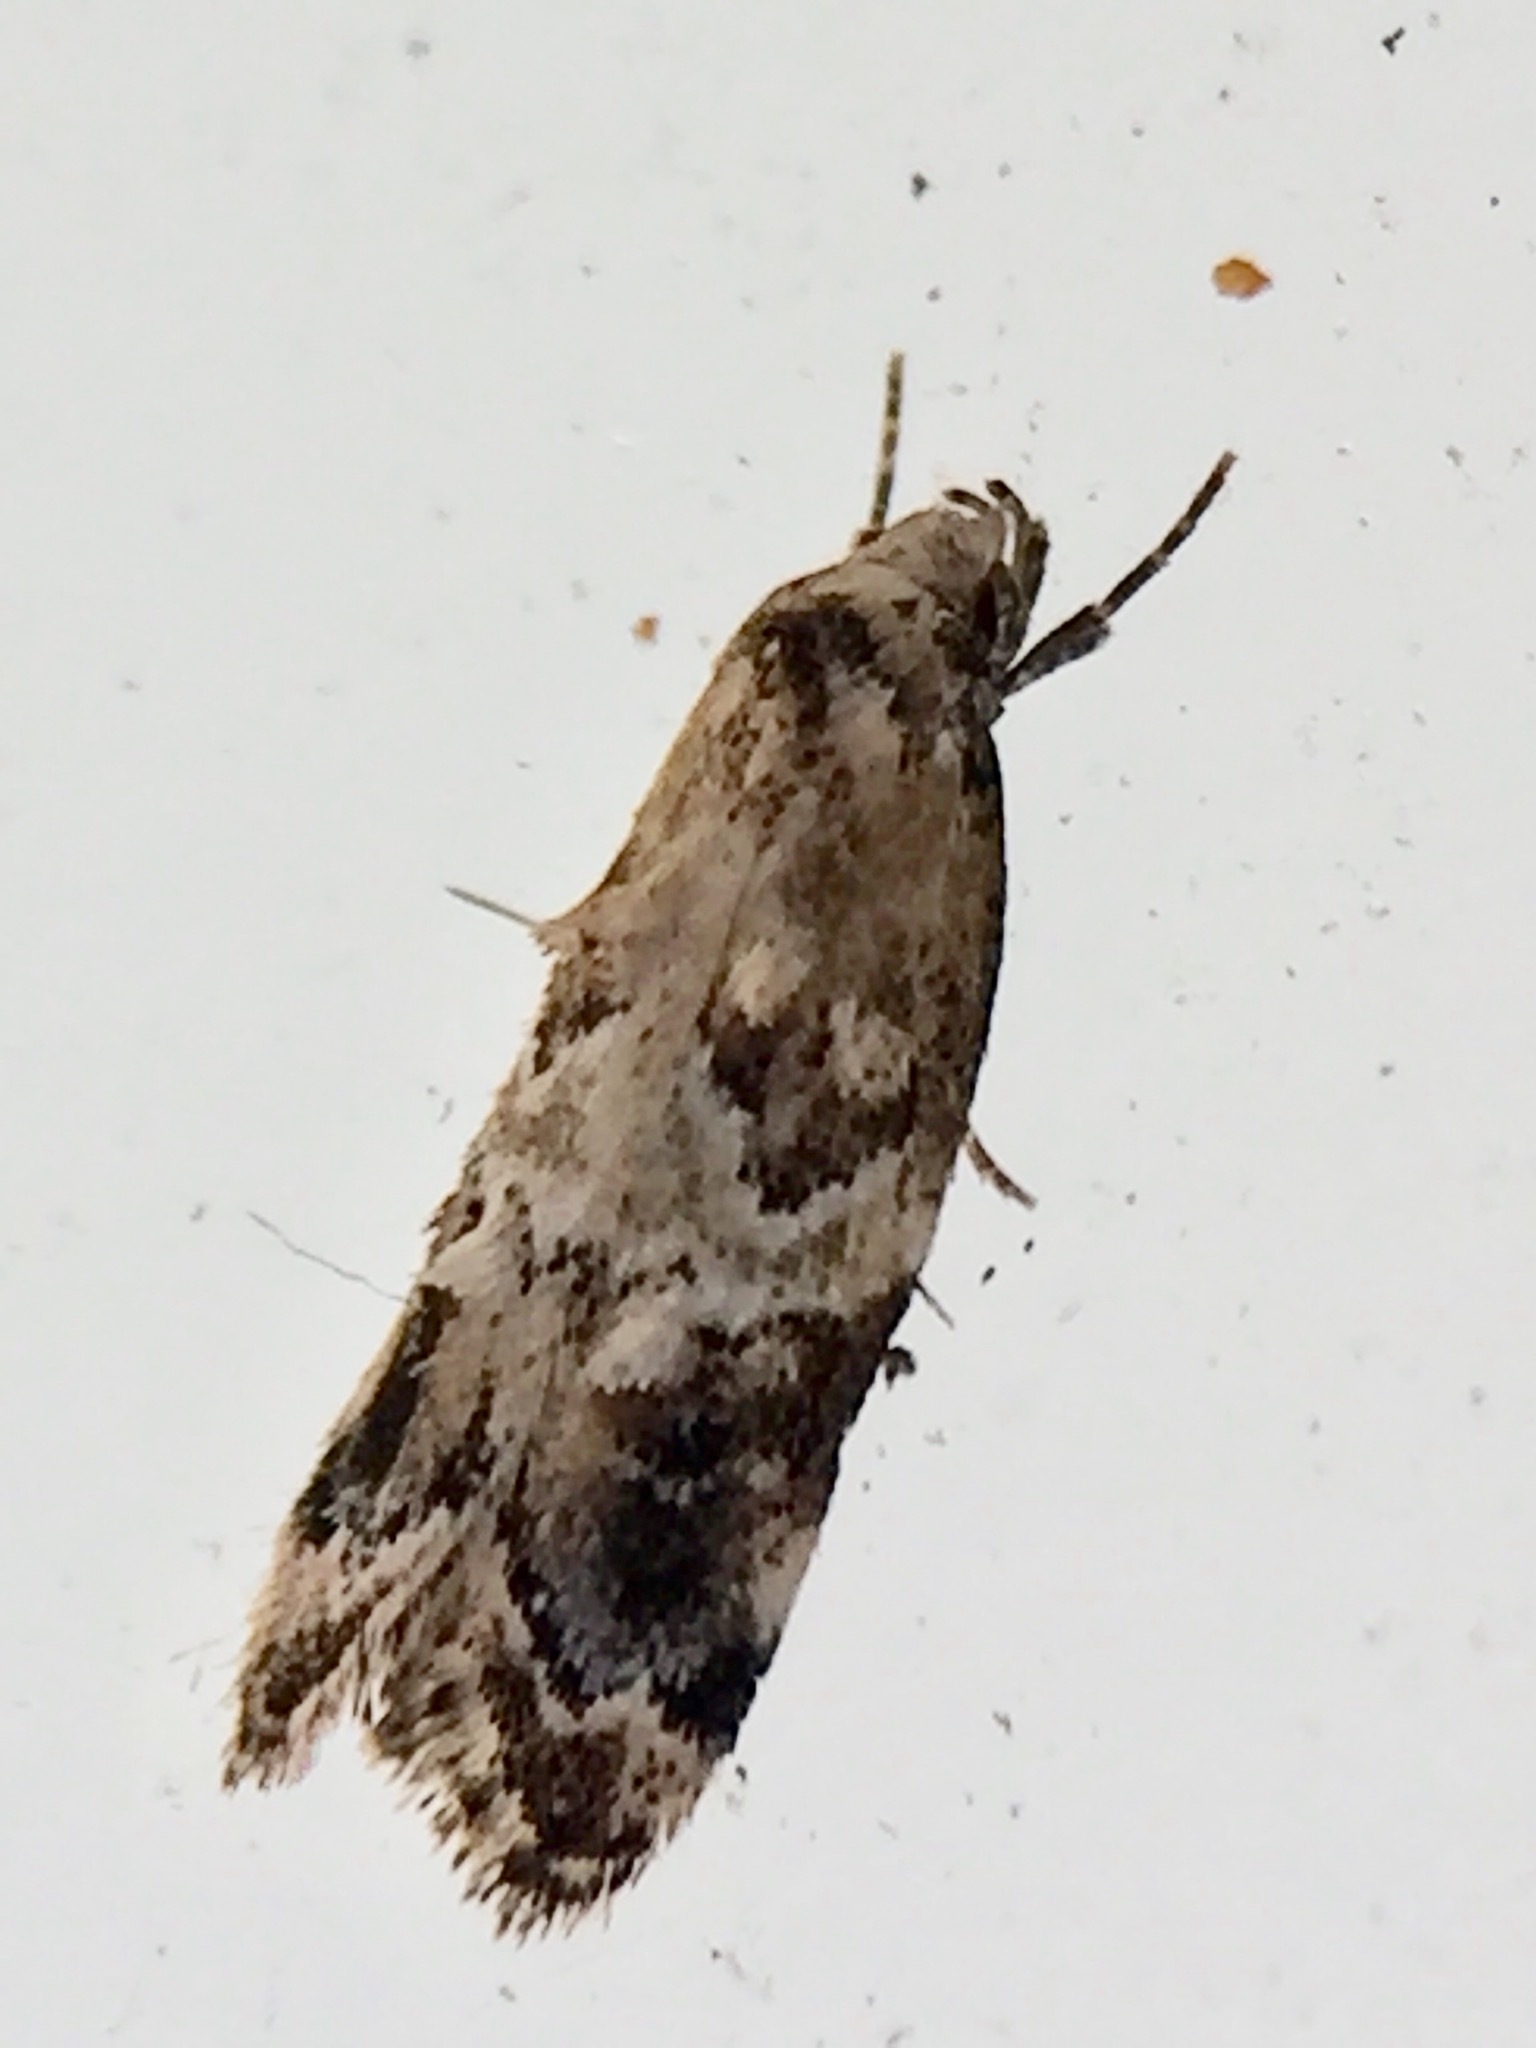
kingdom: Animalia
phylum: Arthropoda
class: Insecta
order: Lepidoptera
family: Oecophoridae
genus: Trachypepla
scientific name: Trachypepla aspidephora
